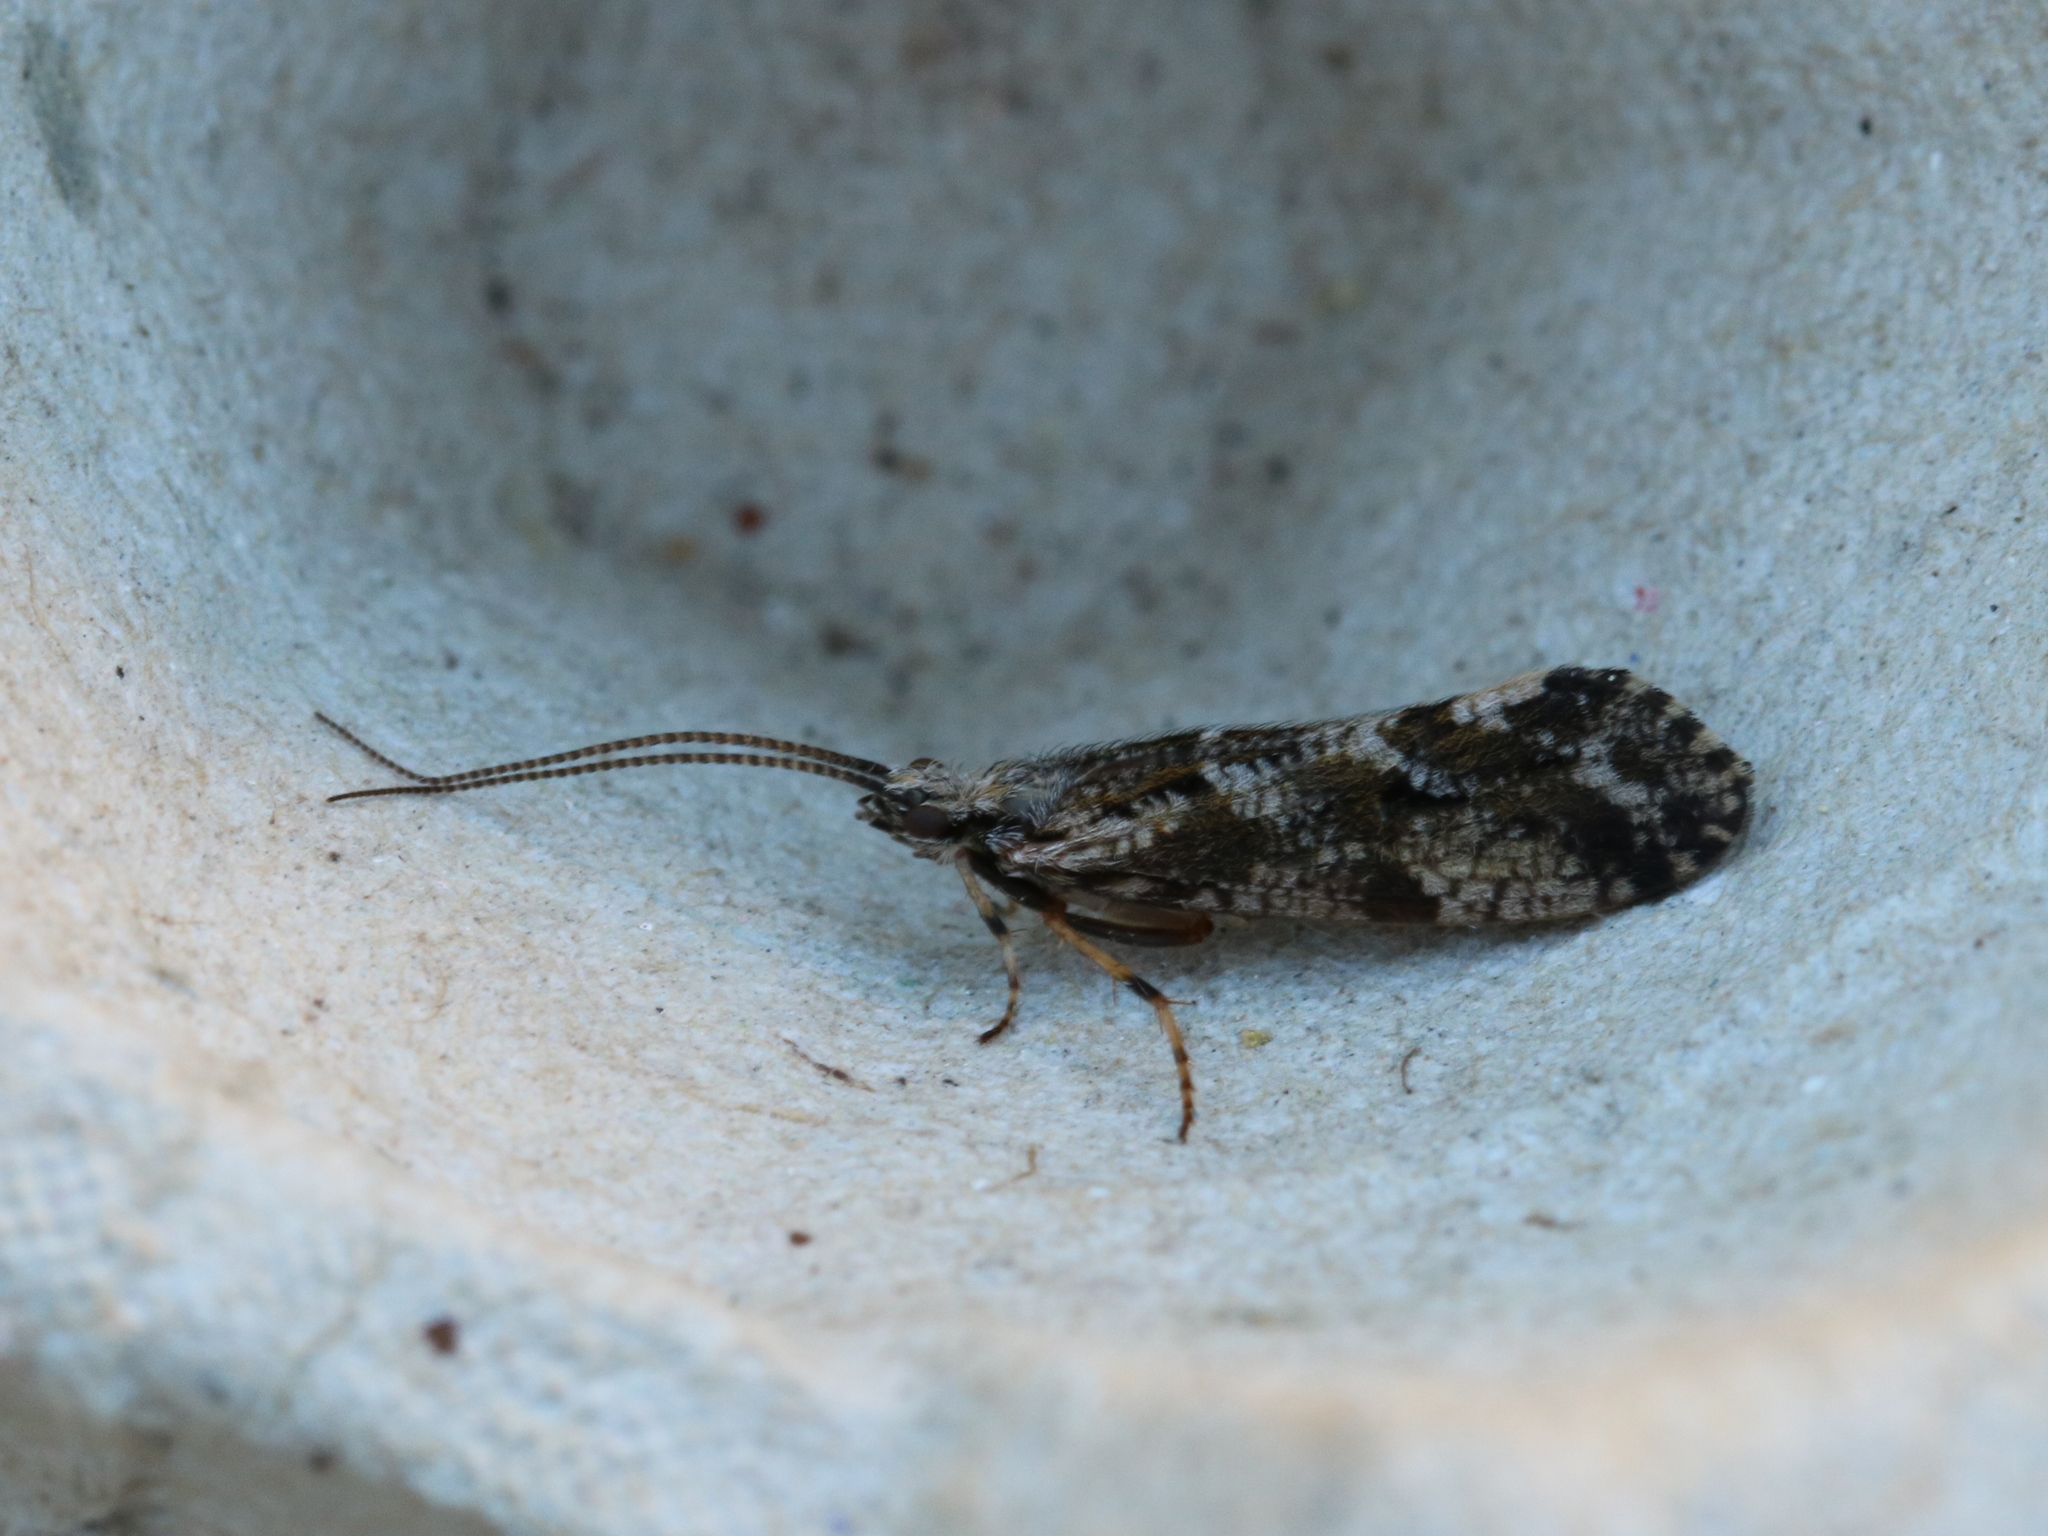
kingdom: Animalia
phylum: Arthropoda
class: Insecta
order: Trichoptera
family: Phryganeidae
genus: Trichostegia
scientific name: Trichostegia minor
